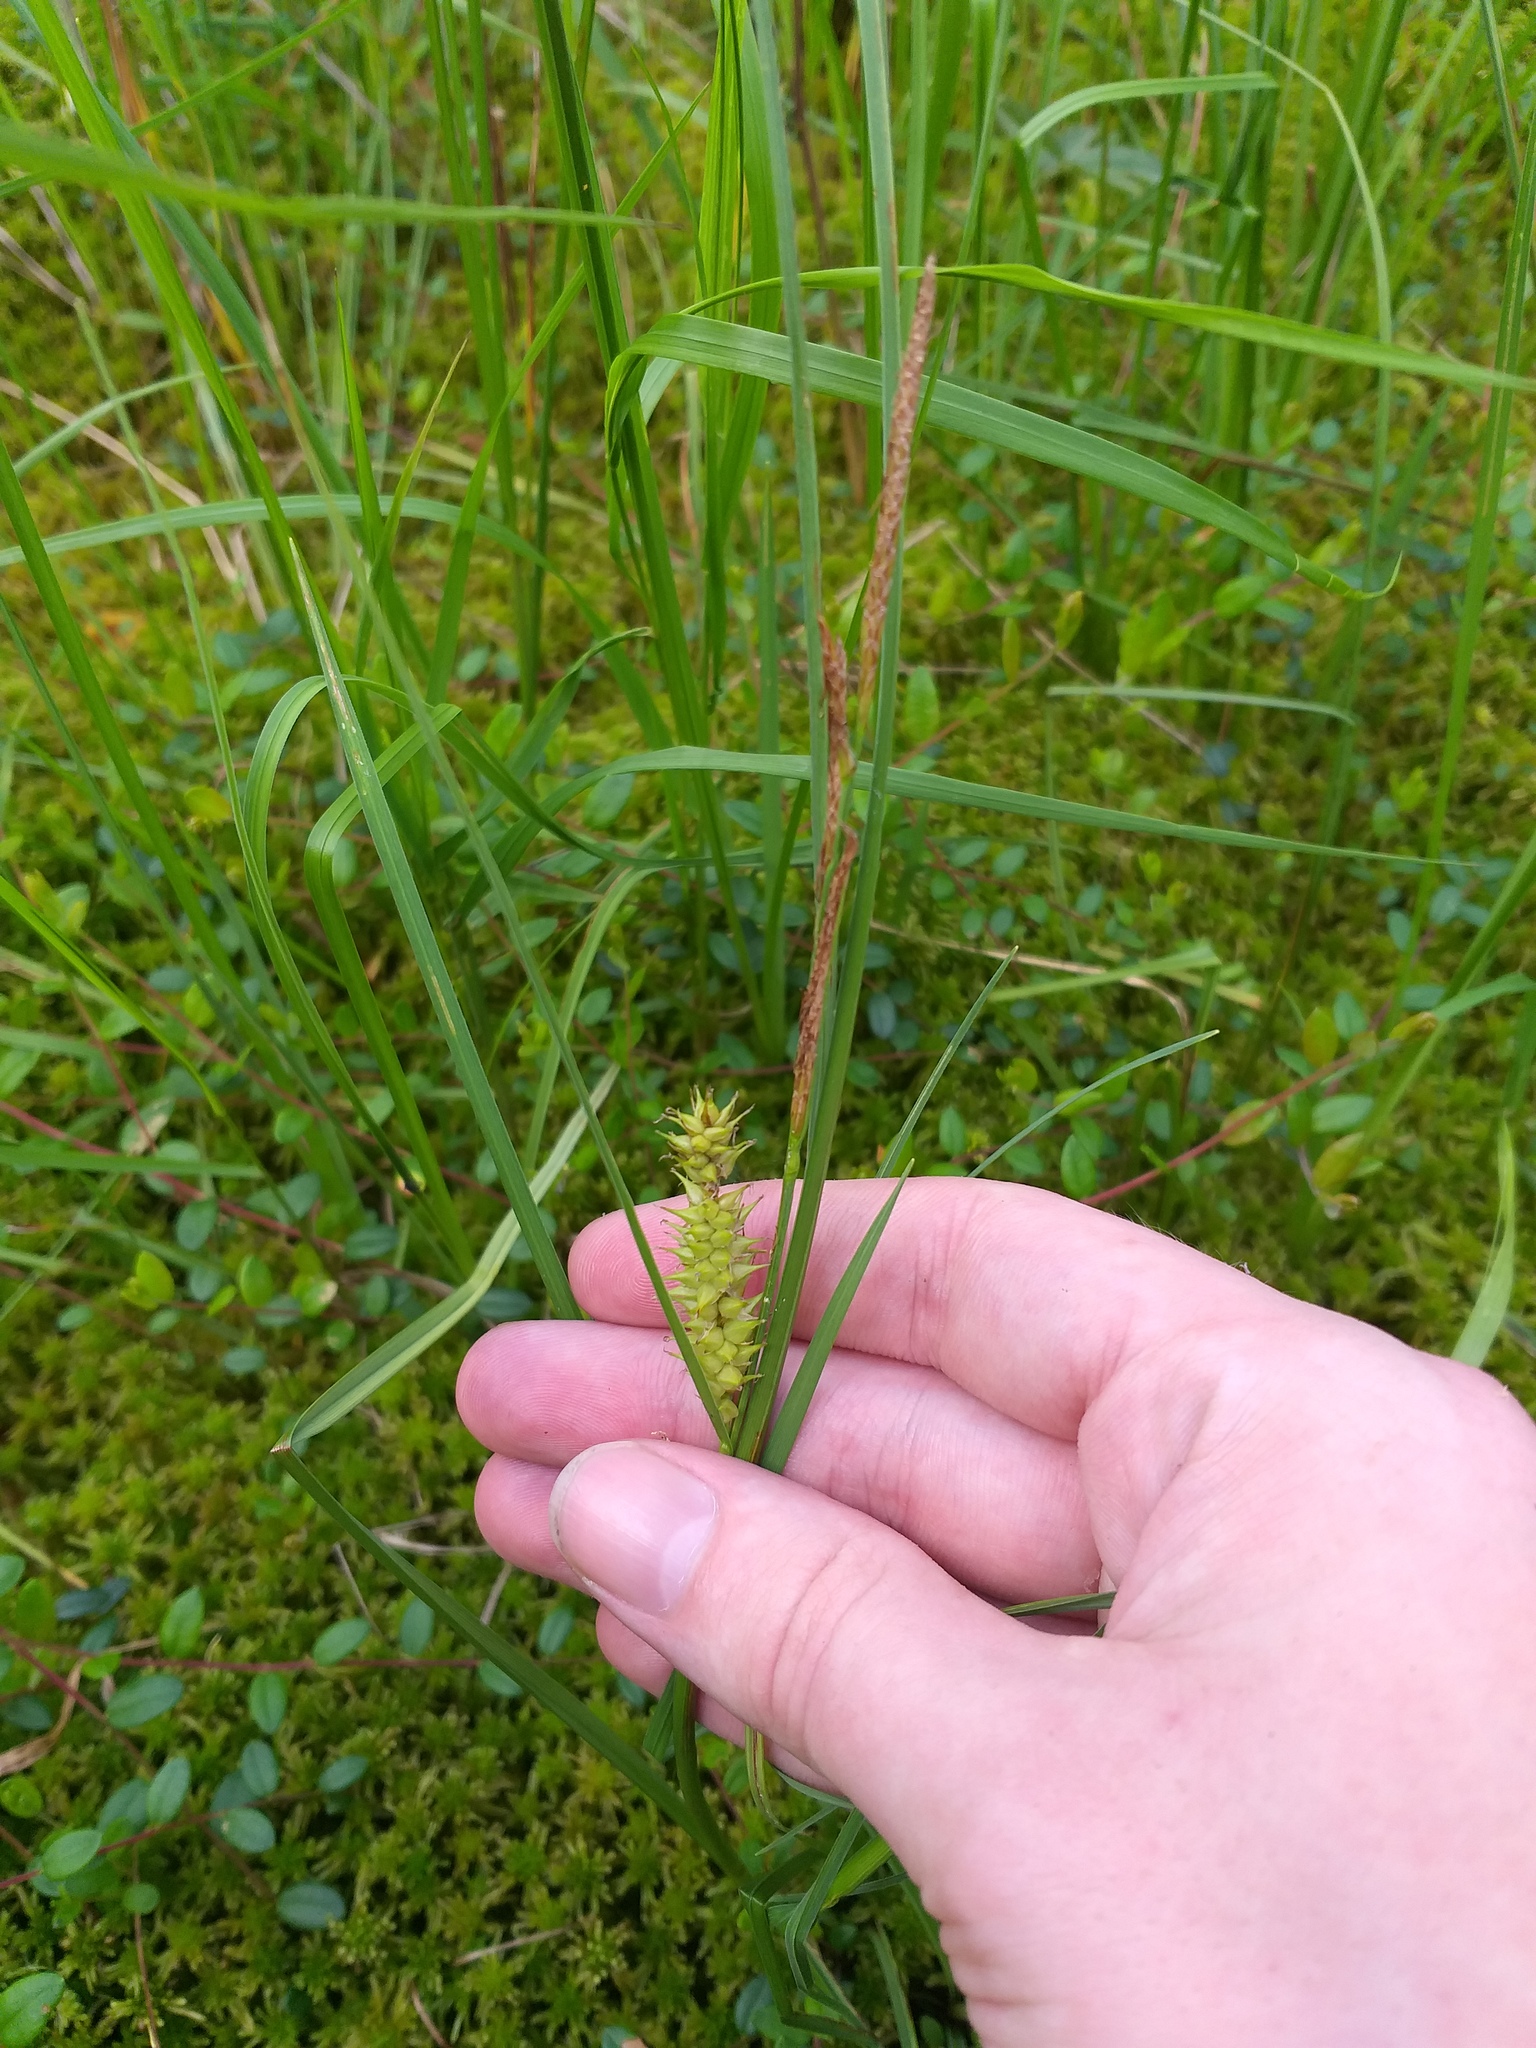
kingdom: Plantae
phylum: Tracheophyta
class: Liliopsida
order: Poales
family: Cyperaceae
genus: Carex
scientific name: Carex rostrata
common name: Bottle sedge
